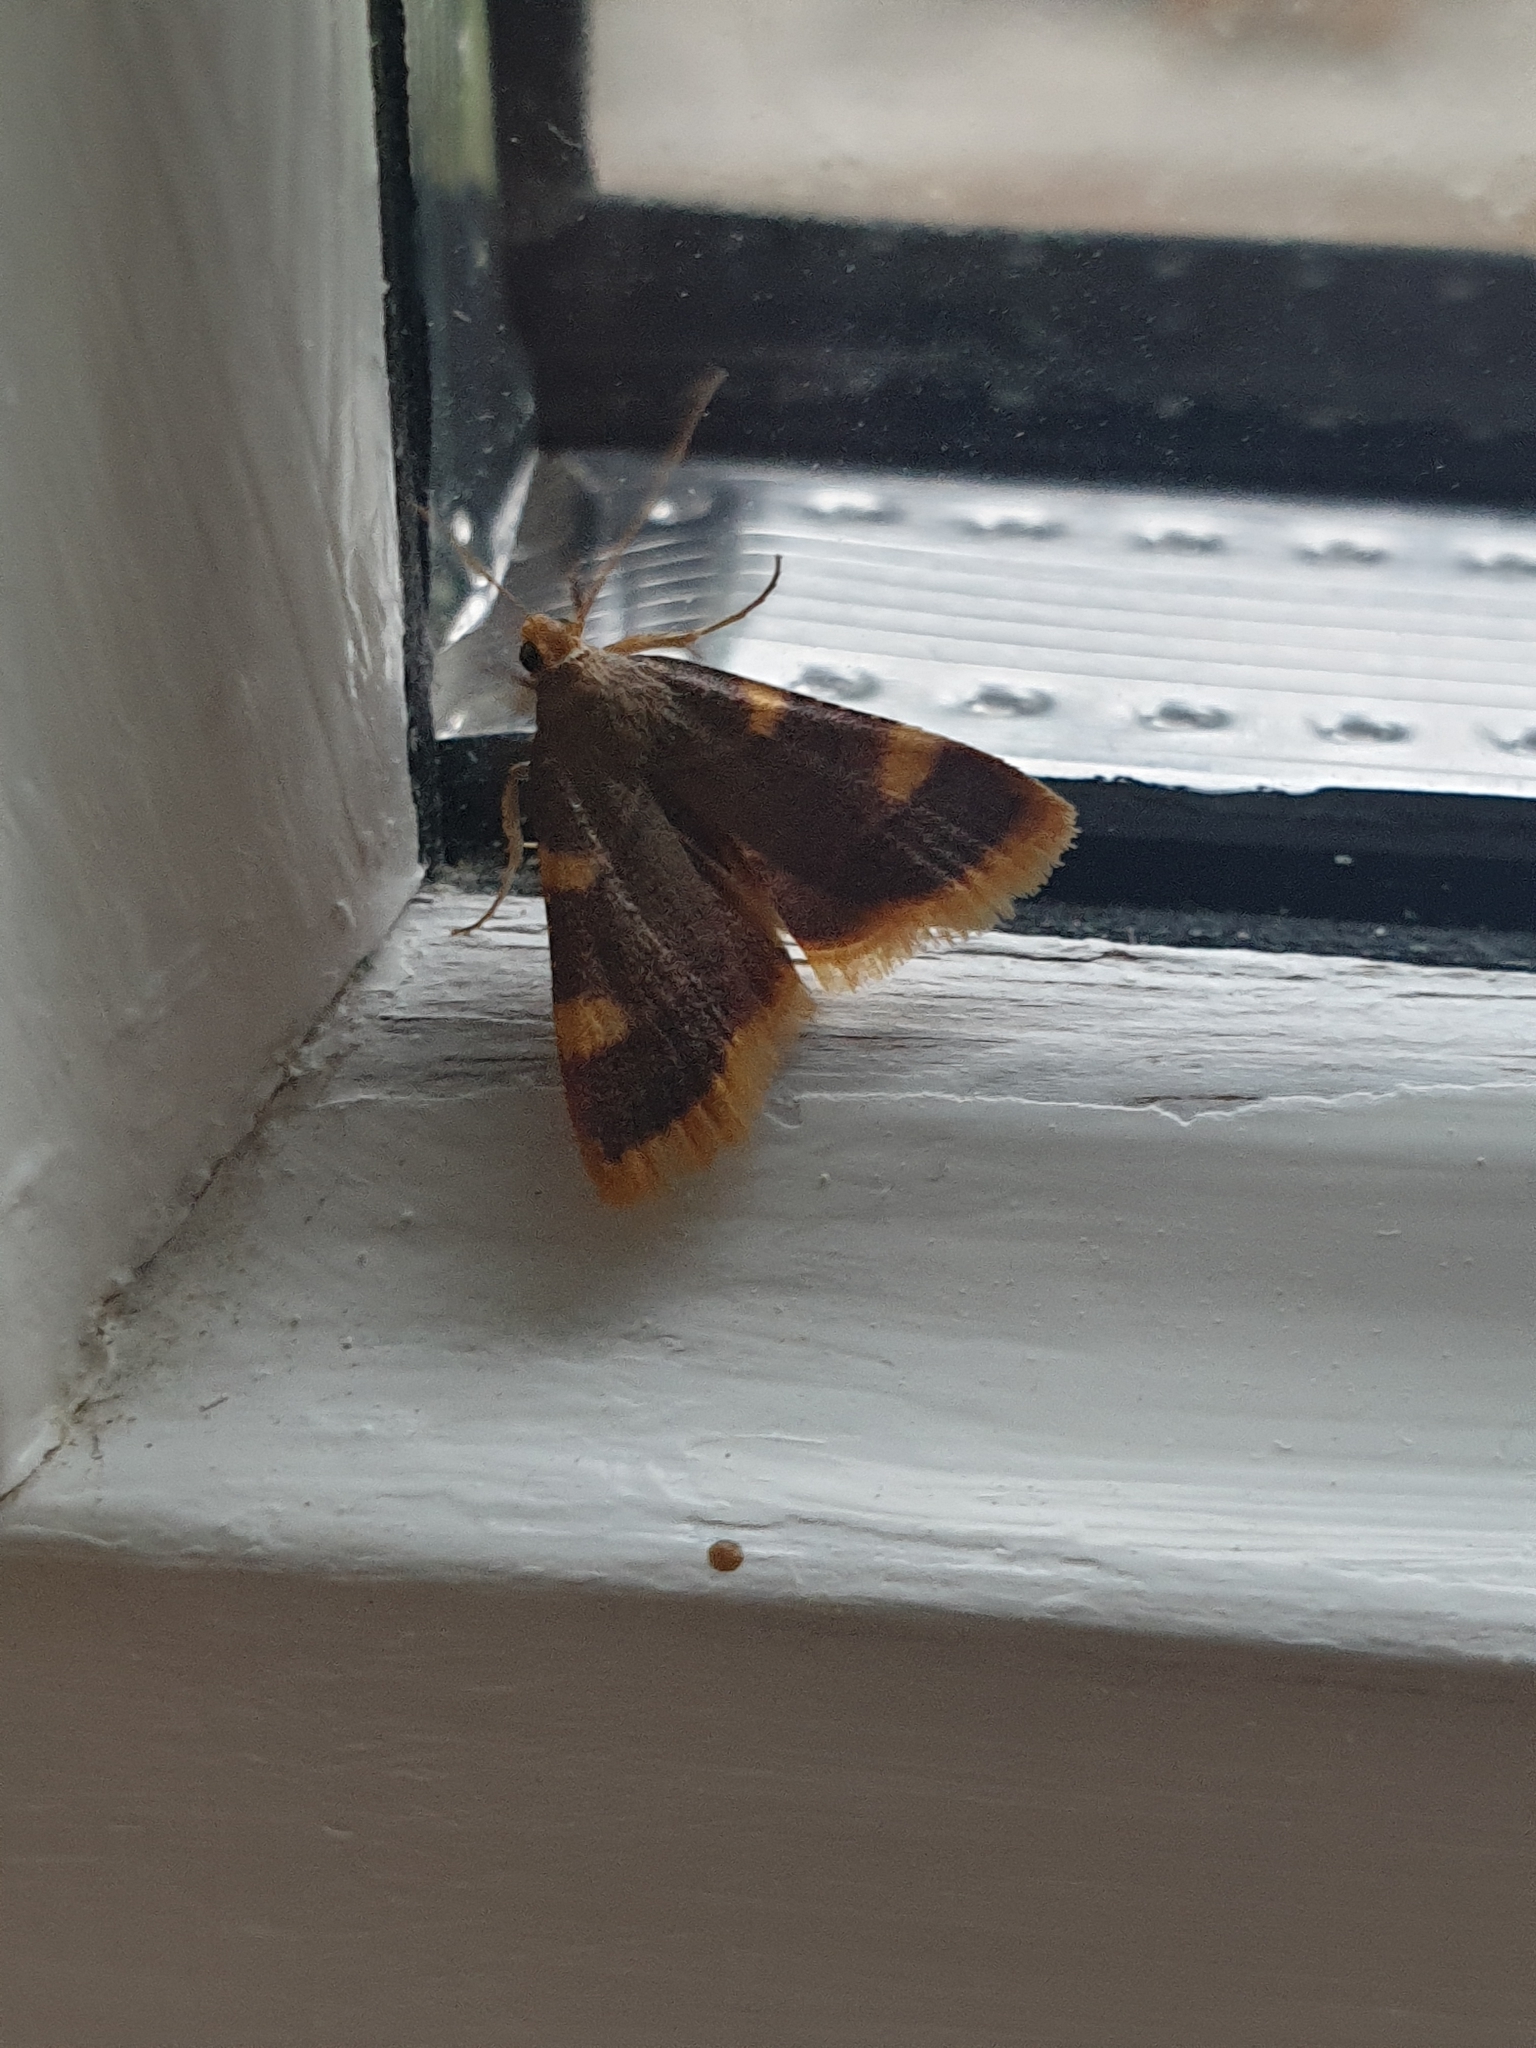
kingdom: Animalia
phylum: Arthropoda
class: Insecta
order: Lepidoptera
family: Pyralidae
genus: Hypsopygia
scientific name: Hypsopygia costalis
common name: Gold triangle
